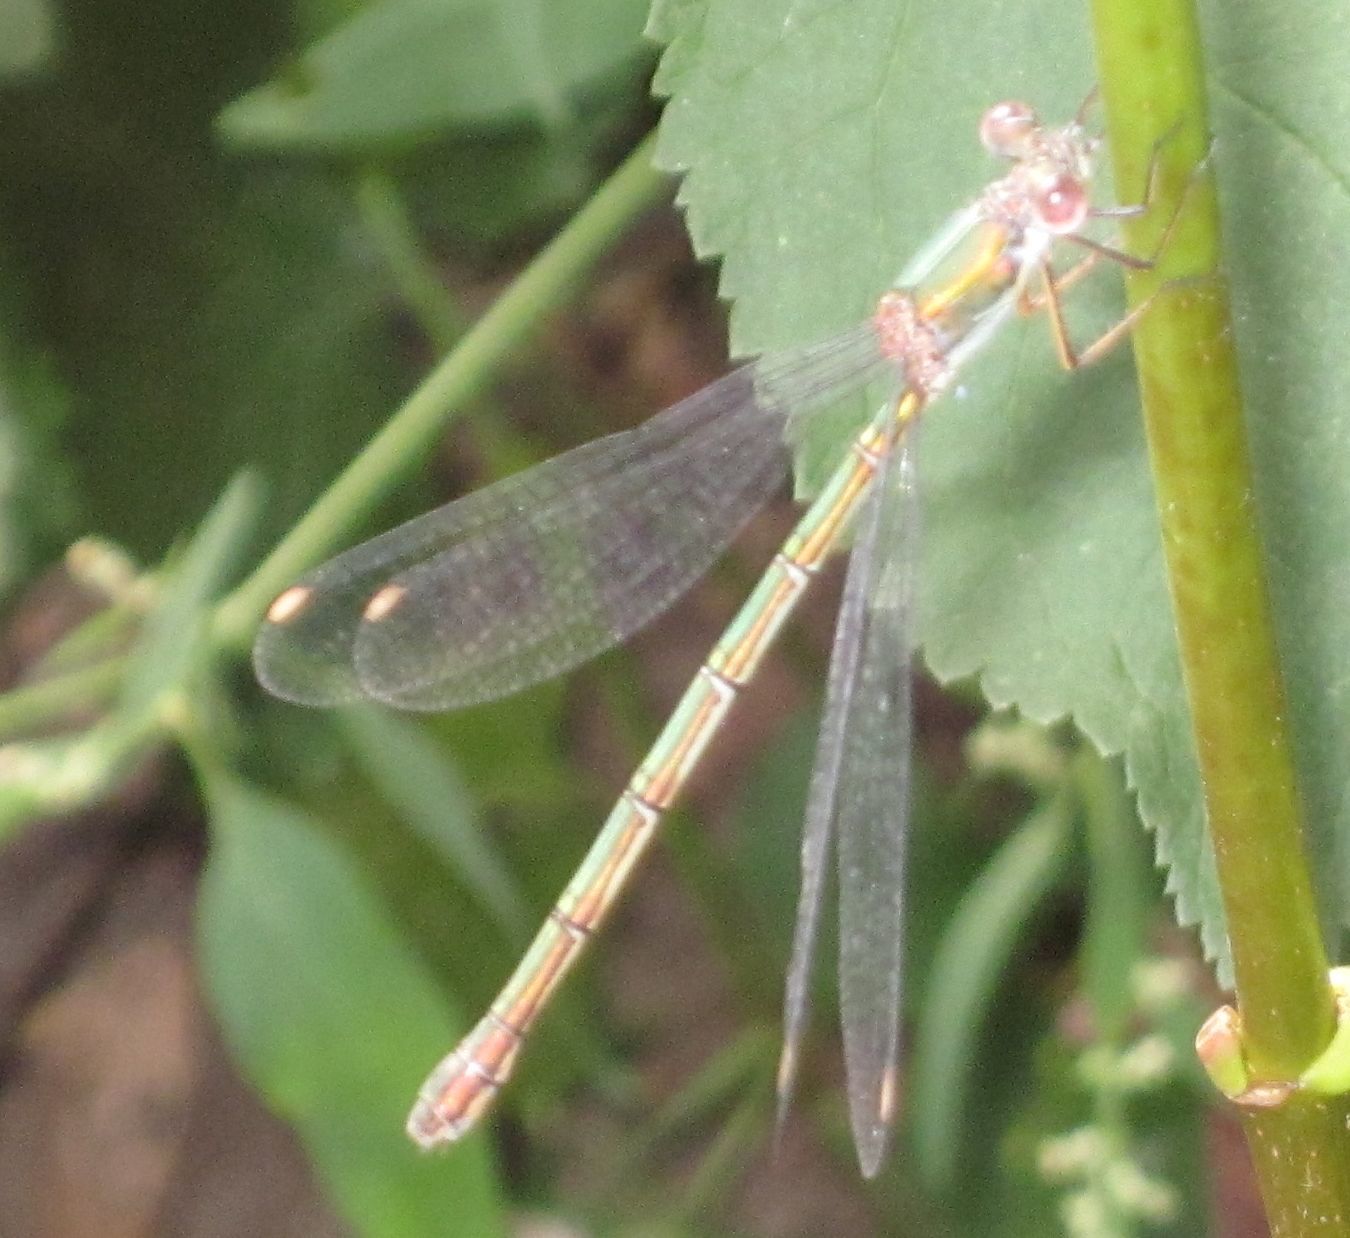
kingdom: Animalia
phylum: Arthropoda
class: Insecta
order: Odonata
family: Lestidae
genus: Chalcolestes
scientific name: Chalcolestes viridis
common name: Green emerald damselfly
